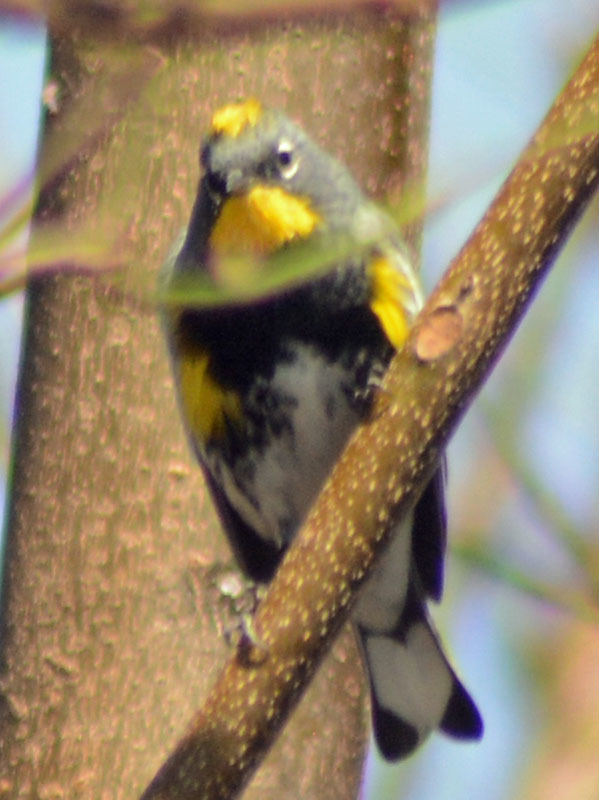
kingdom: Animalia
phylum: Chordata
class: Aves
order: Passeriformes
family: Parulidae
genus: Setophaga
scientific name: Setophaga auduboni
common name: Audubon's warbler
